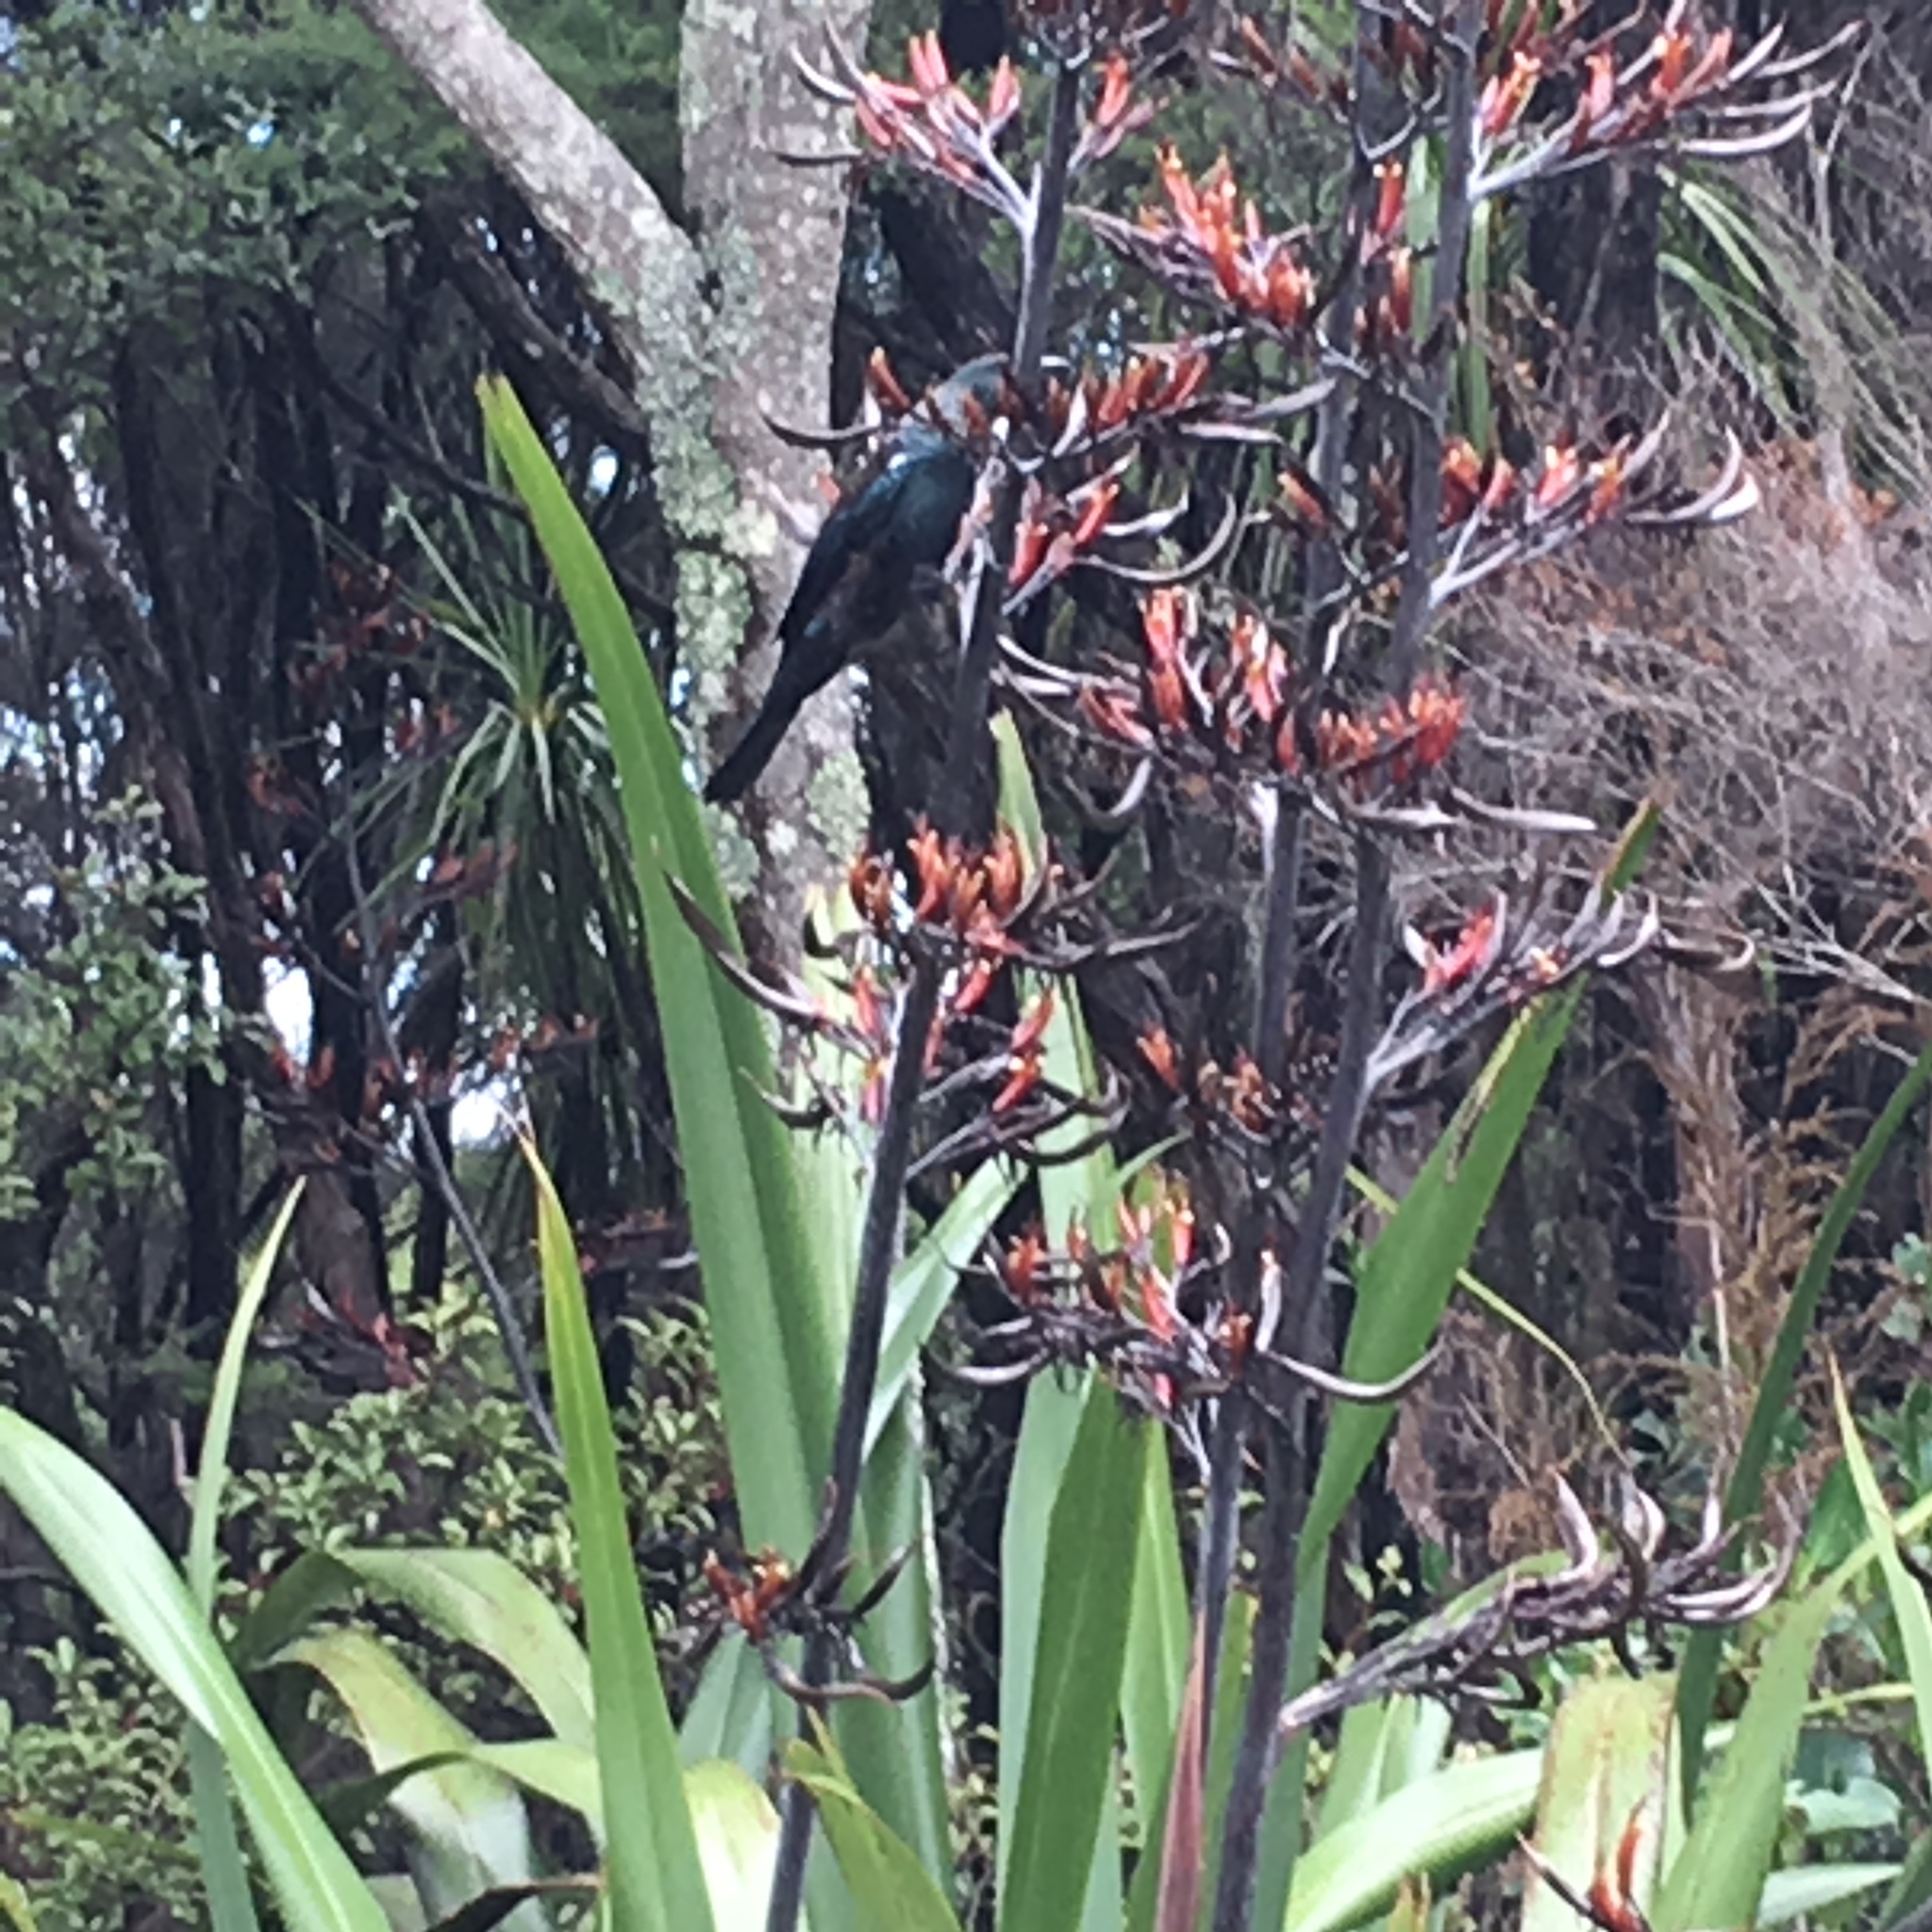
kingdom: Animalia
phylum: Chordata
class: Aves
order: Passeriformes
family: Meliphagidae
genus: Prosthemadera
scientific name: Prosthemadera novaeseelandiae
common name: Tui
